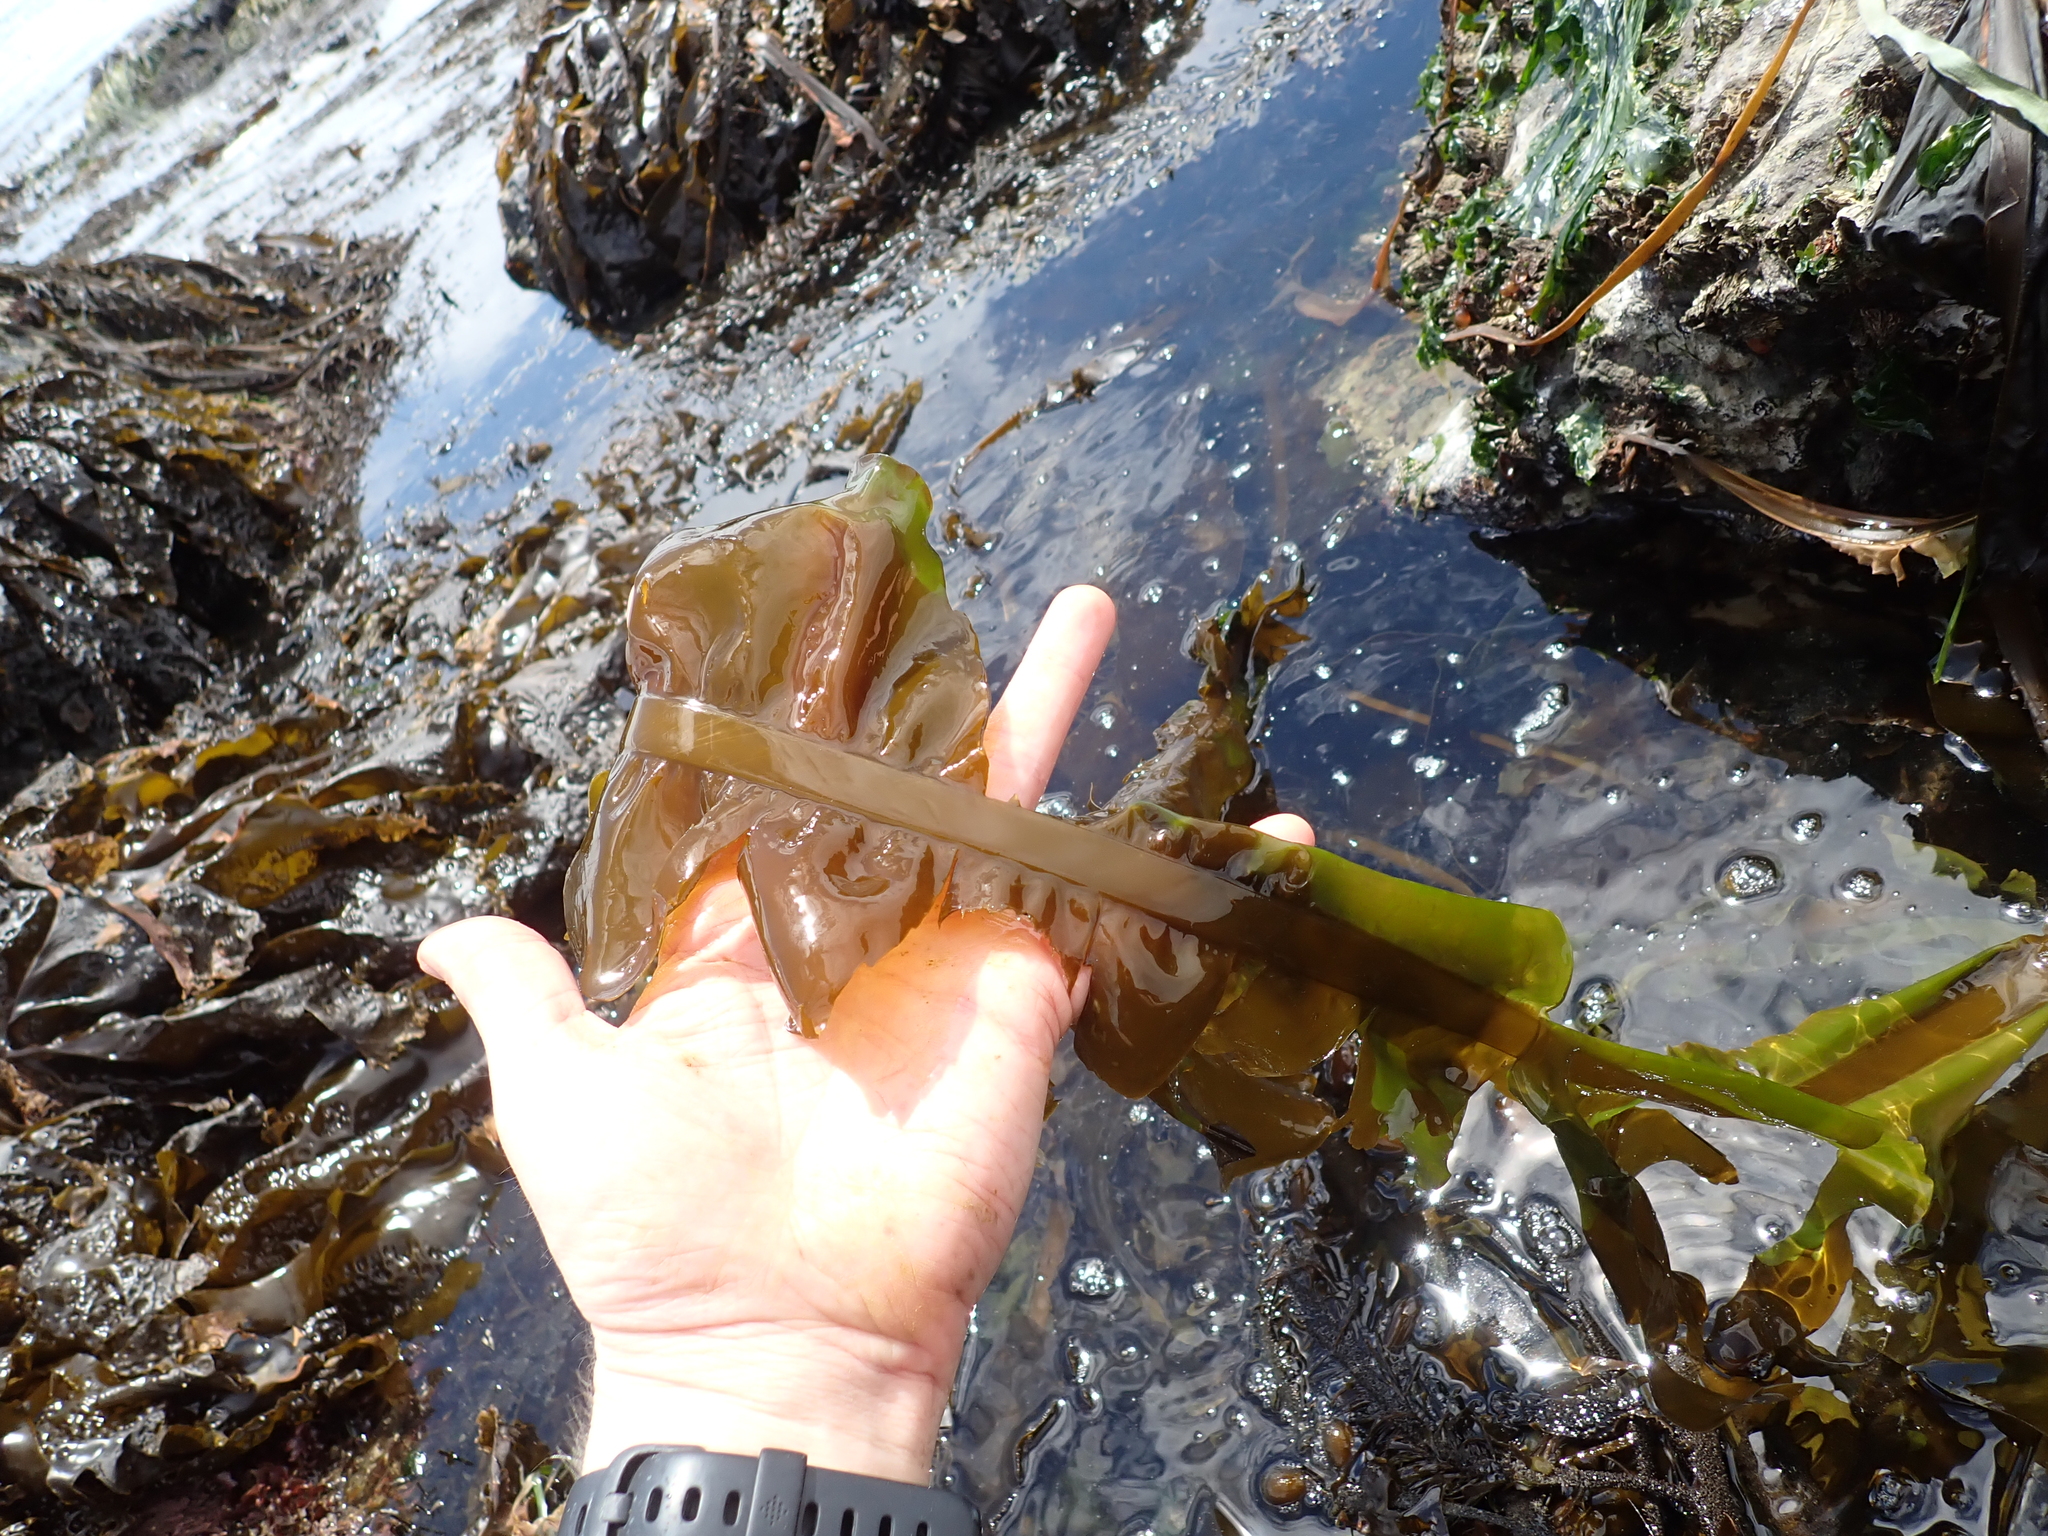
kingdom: Chromista
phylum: Ochrophyta
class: Phaeophyceae
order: Laminariales
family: Alariaceae
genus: Alaria
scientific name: Alaria marginata
